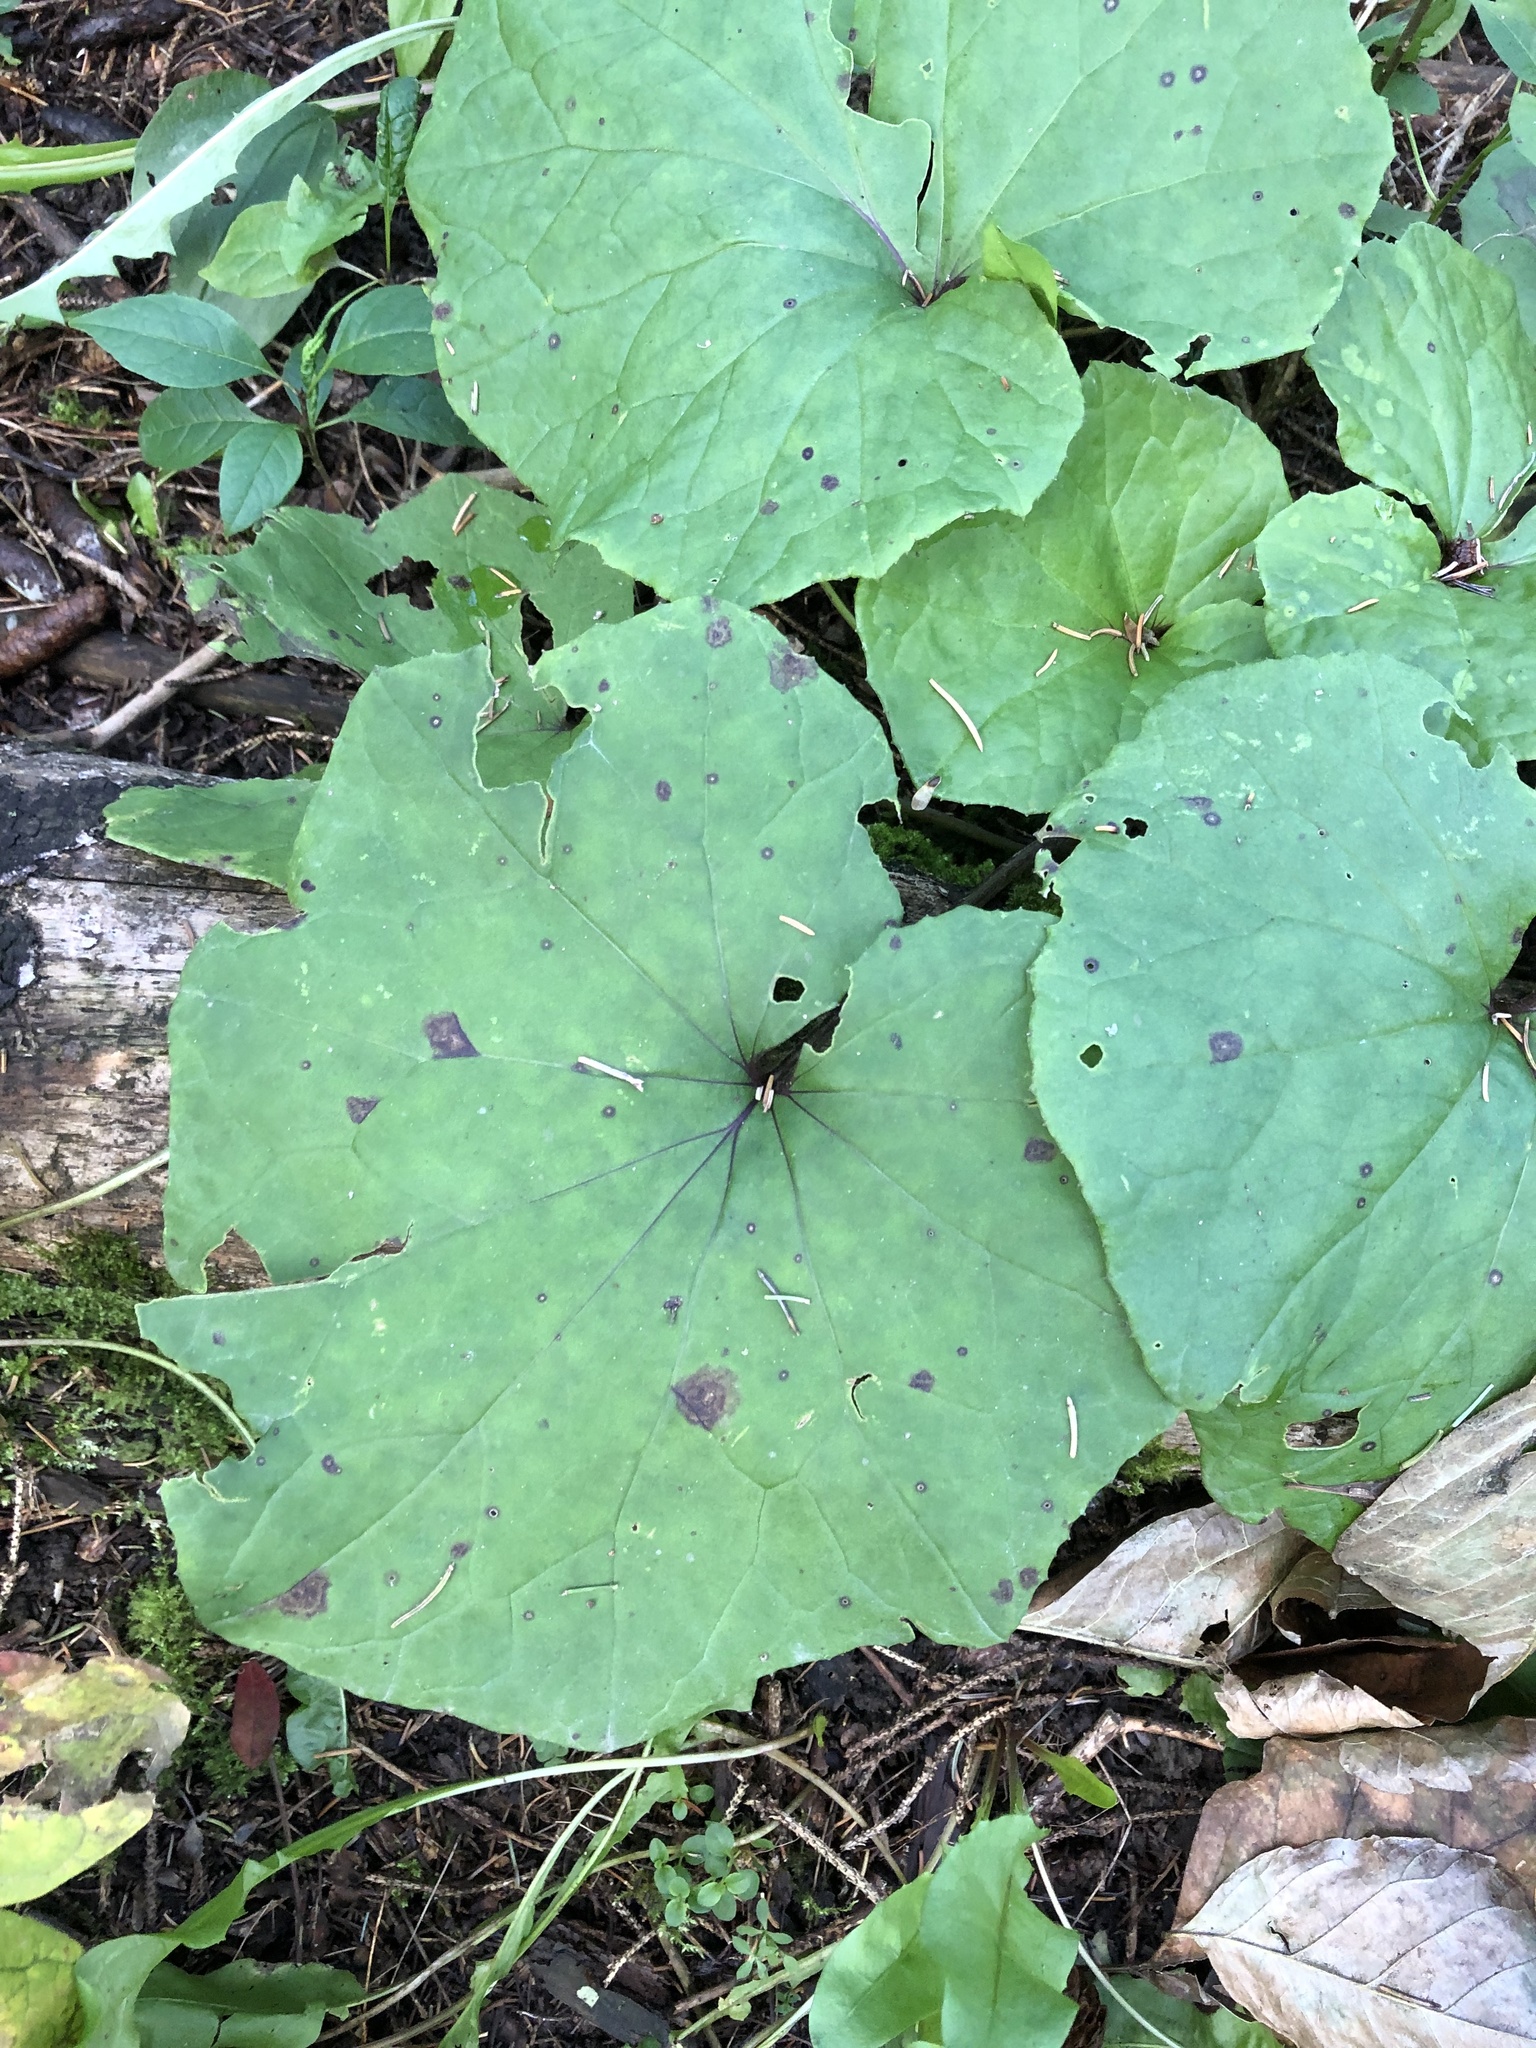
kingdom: Plantae
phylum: Tracheophyta
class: Magnoliopsida
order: Asterales
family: Asteraceae
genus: Tussilago
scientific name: Tussilago farfara
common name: Coltsfoot
